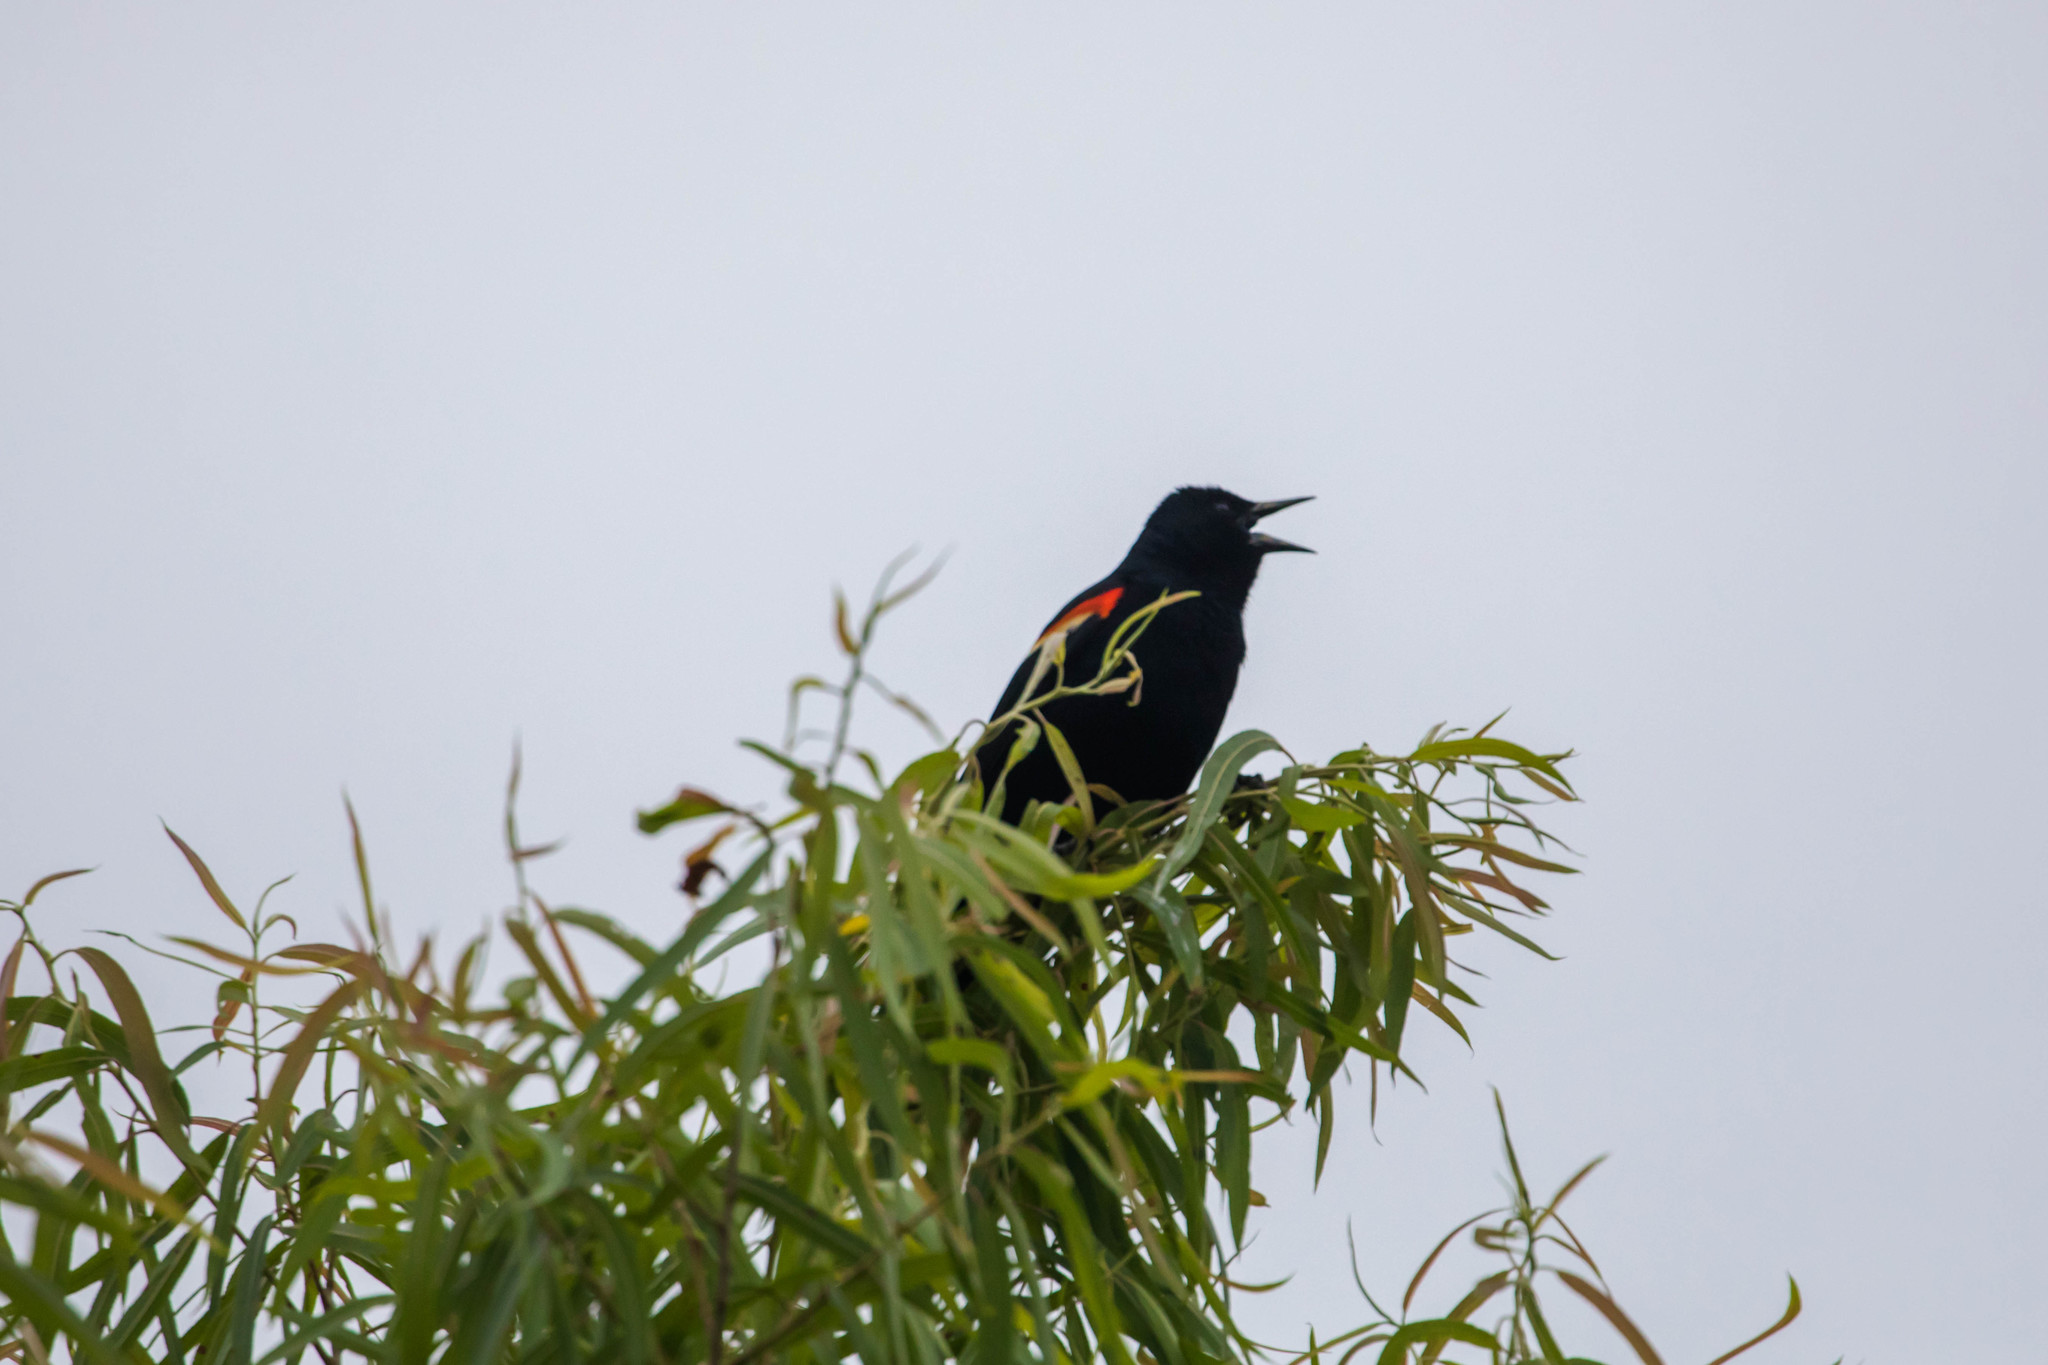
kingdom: Animalia
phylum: Chordata
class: Aves
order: Passeriformes
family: Icteridae
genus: Agelaius
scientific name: Agelaius phoeniceus
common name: Red-winged blackbird
